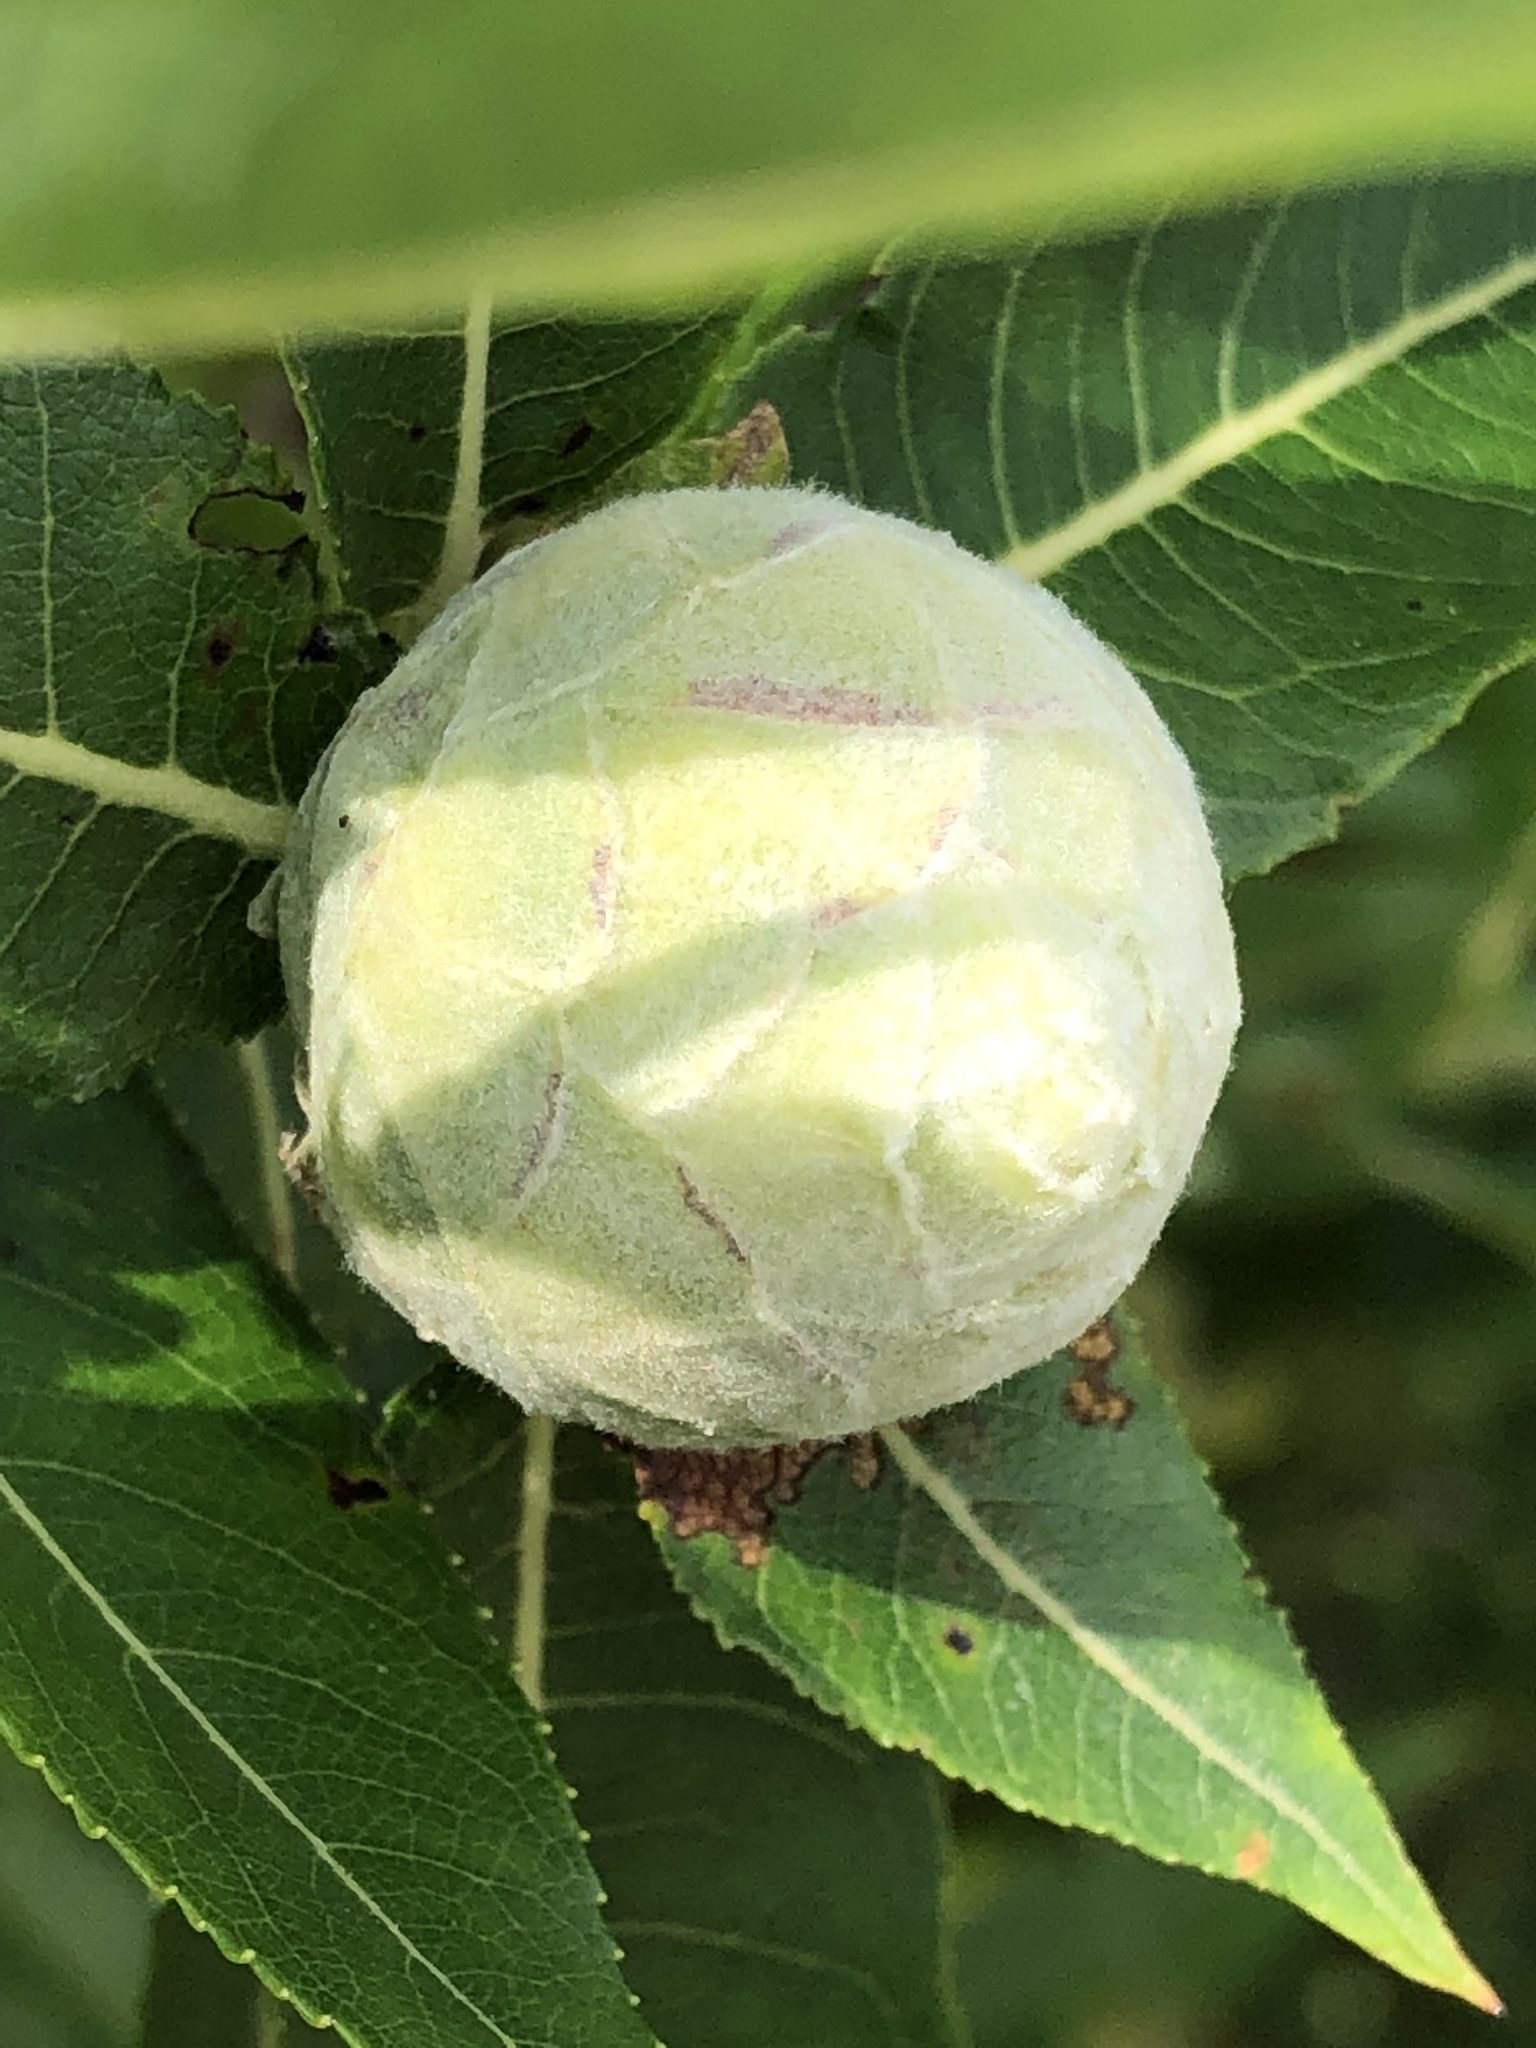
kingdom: Animalia
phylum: Arthropoda
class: Insecta
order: Diptera
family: Cecidomyiidae
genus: Rabdophaga
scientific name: Rabdophaga strobiloides
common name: Willow pinecone gall midge
